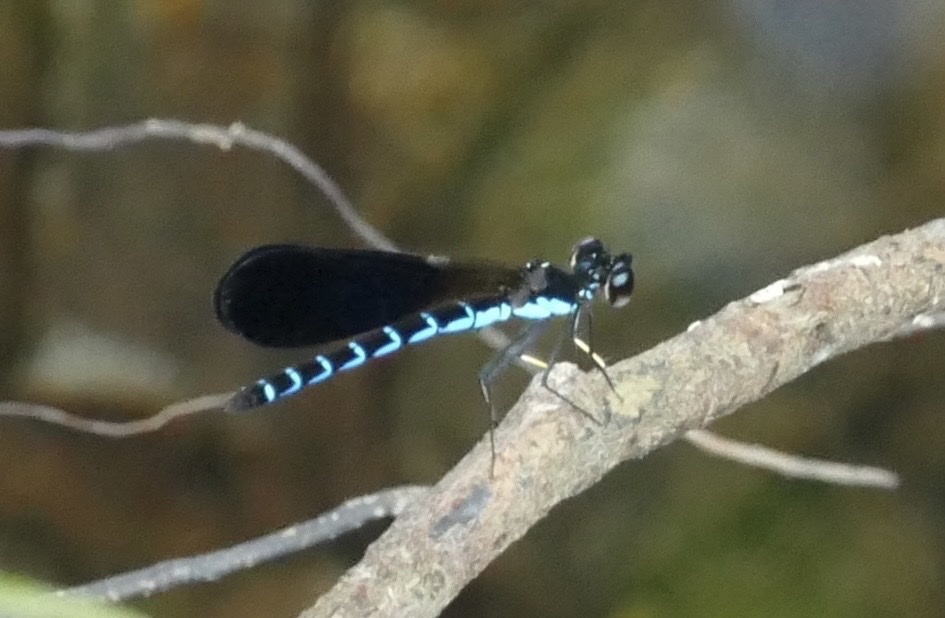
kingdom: Animalia
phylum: Arthropoda
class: Insecta
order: Odonata
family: Chlorocyphidae
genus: Rhinocypha
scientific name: Rhinocypha tincta
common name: Papuan jewel
